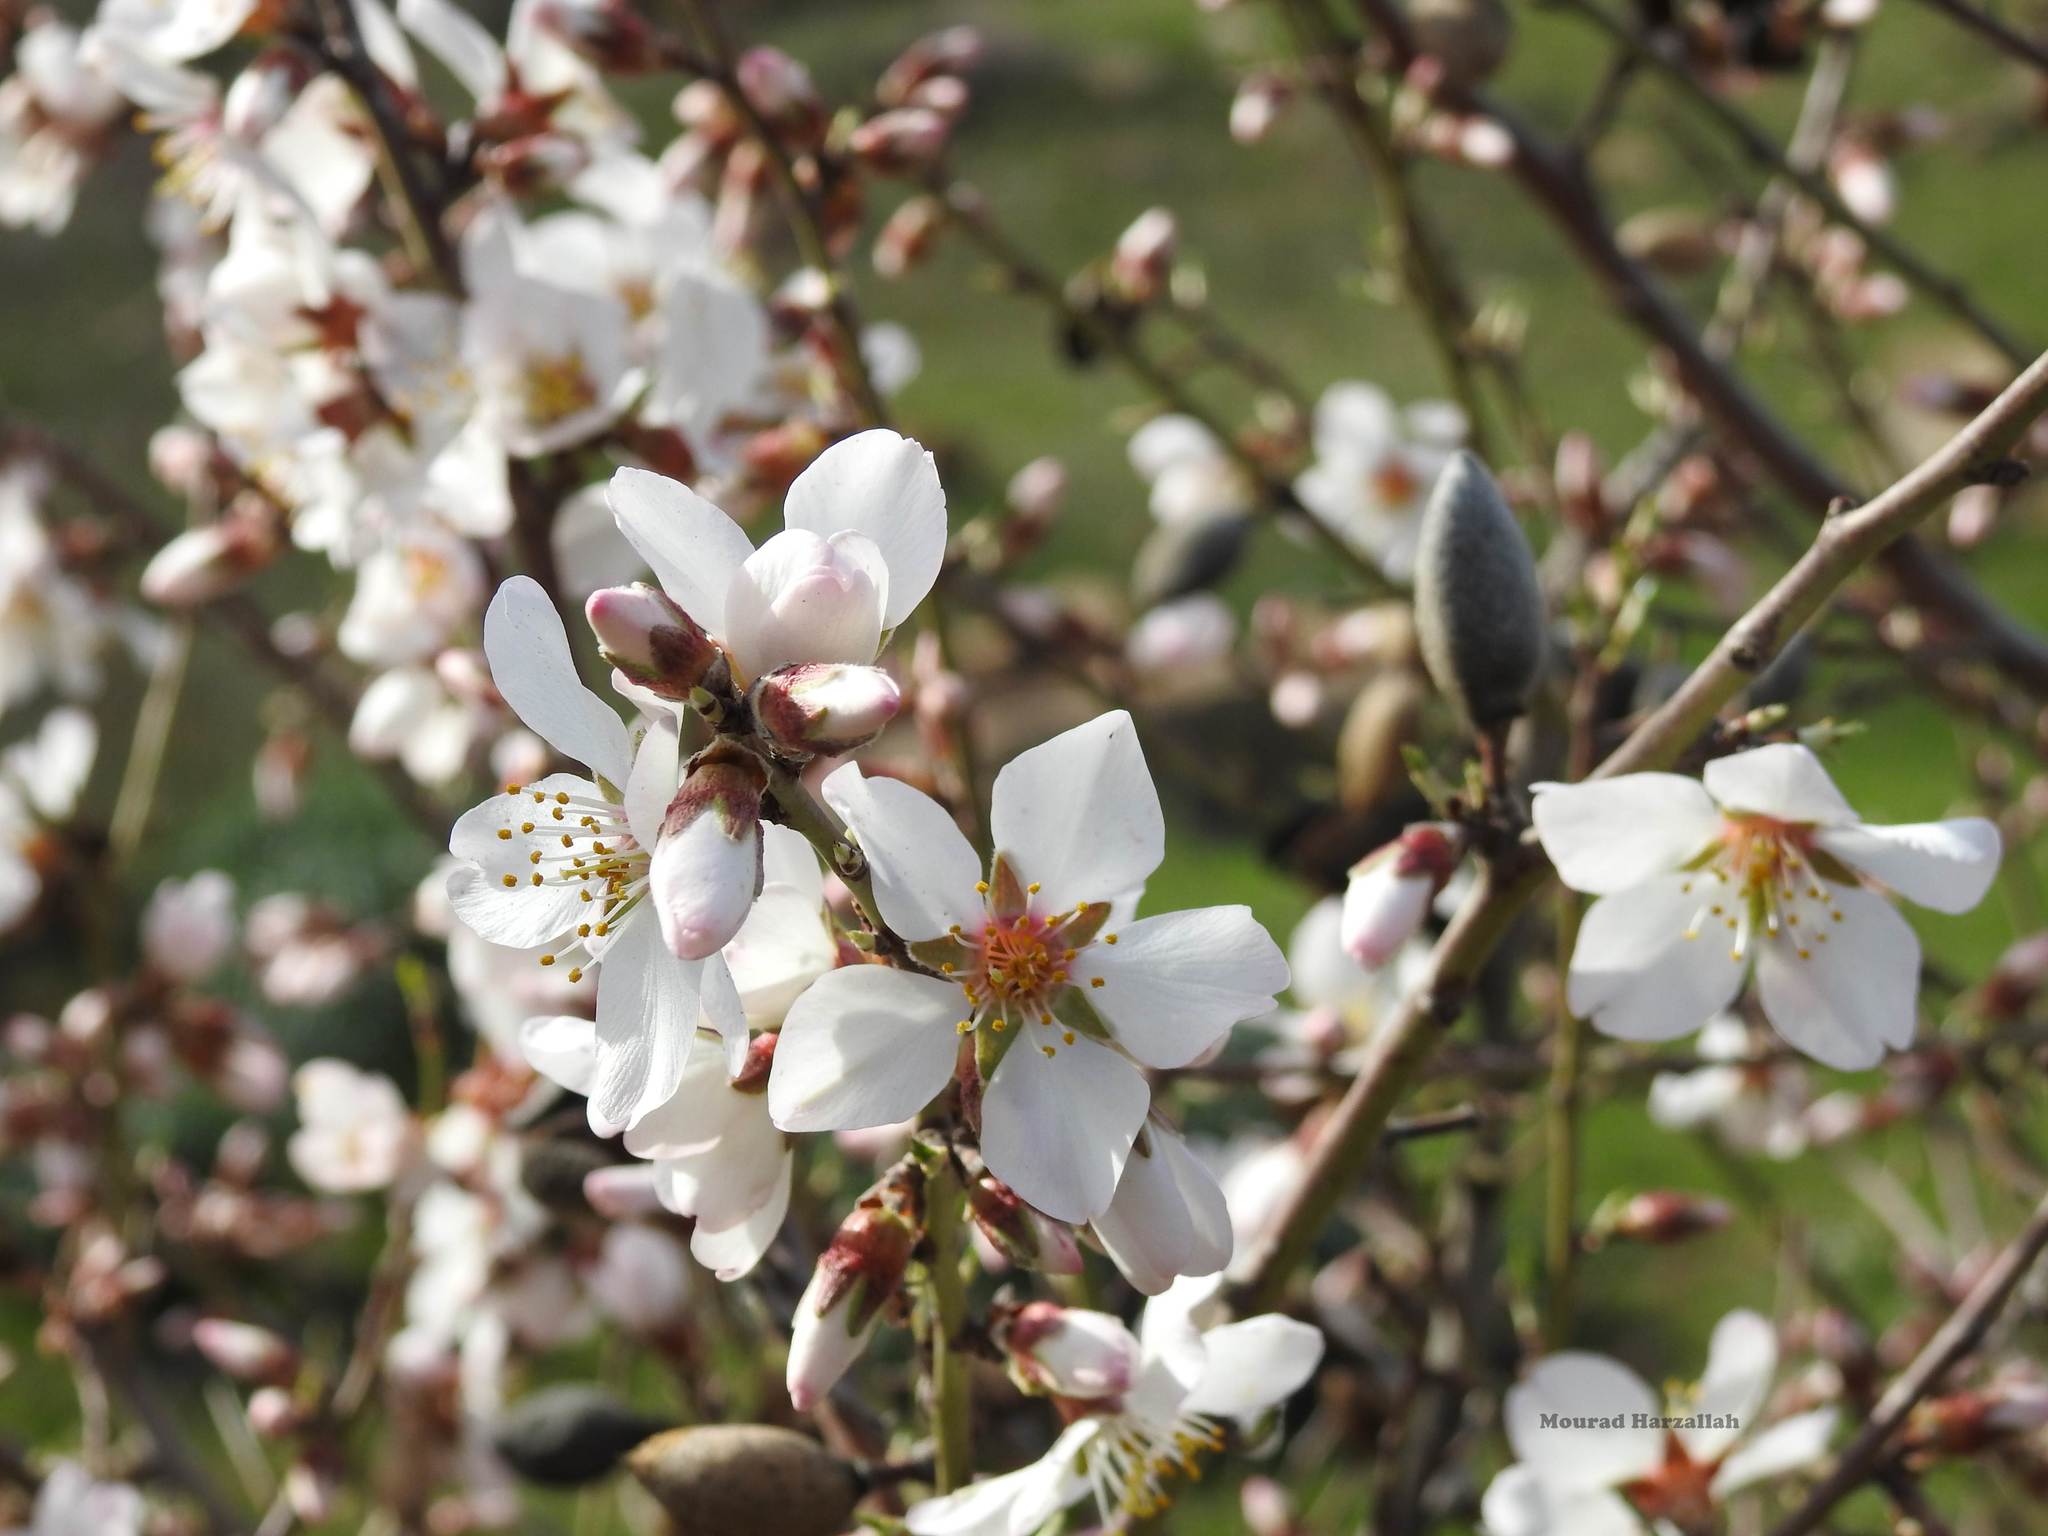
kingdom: Plantae
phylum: Tracheophyta
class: Magnoliopsida
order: Rosales
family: Rosaceae
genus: Prunus
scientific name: Prunus amygdalus
